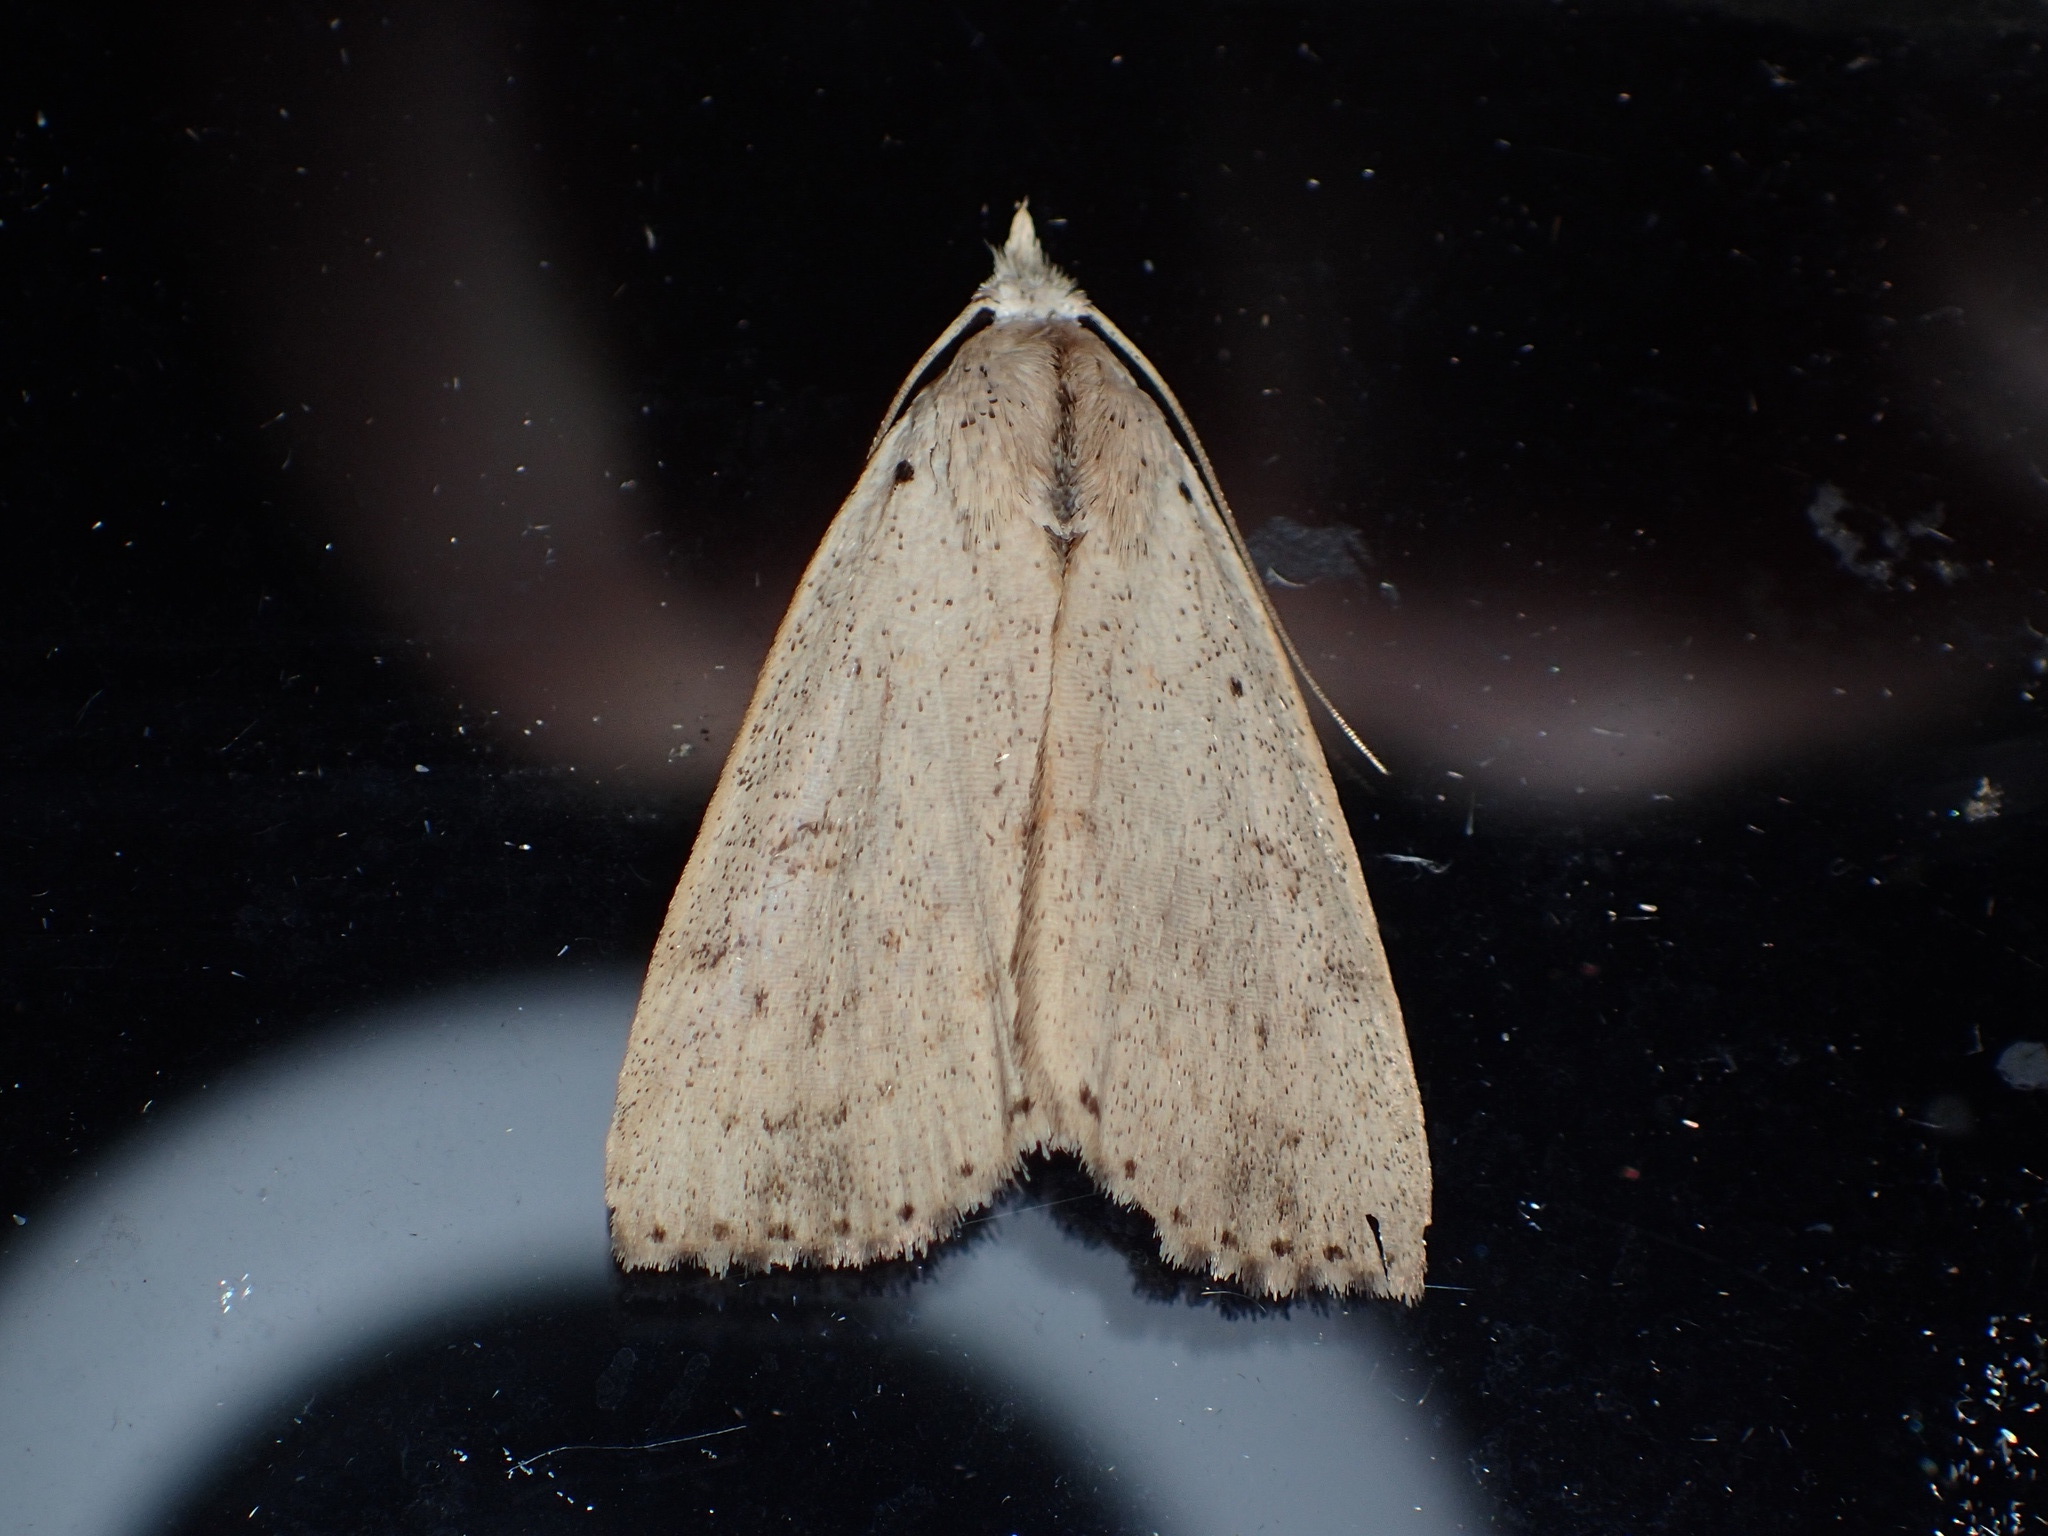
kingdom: Animalia
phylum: Arthropoda
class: Insecta
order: Lepidoptera
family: Erebidae
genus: Scolecocampa
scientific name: Scolecocampa liburna
